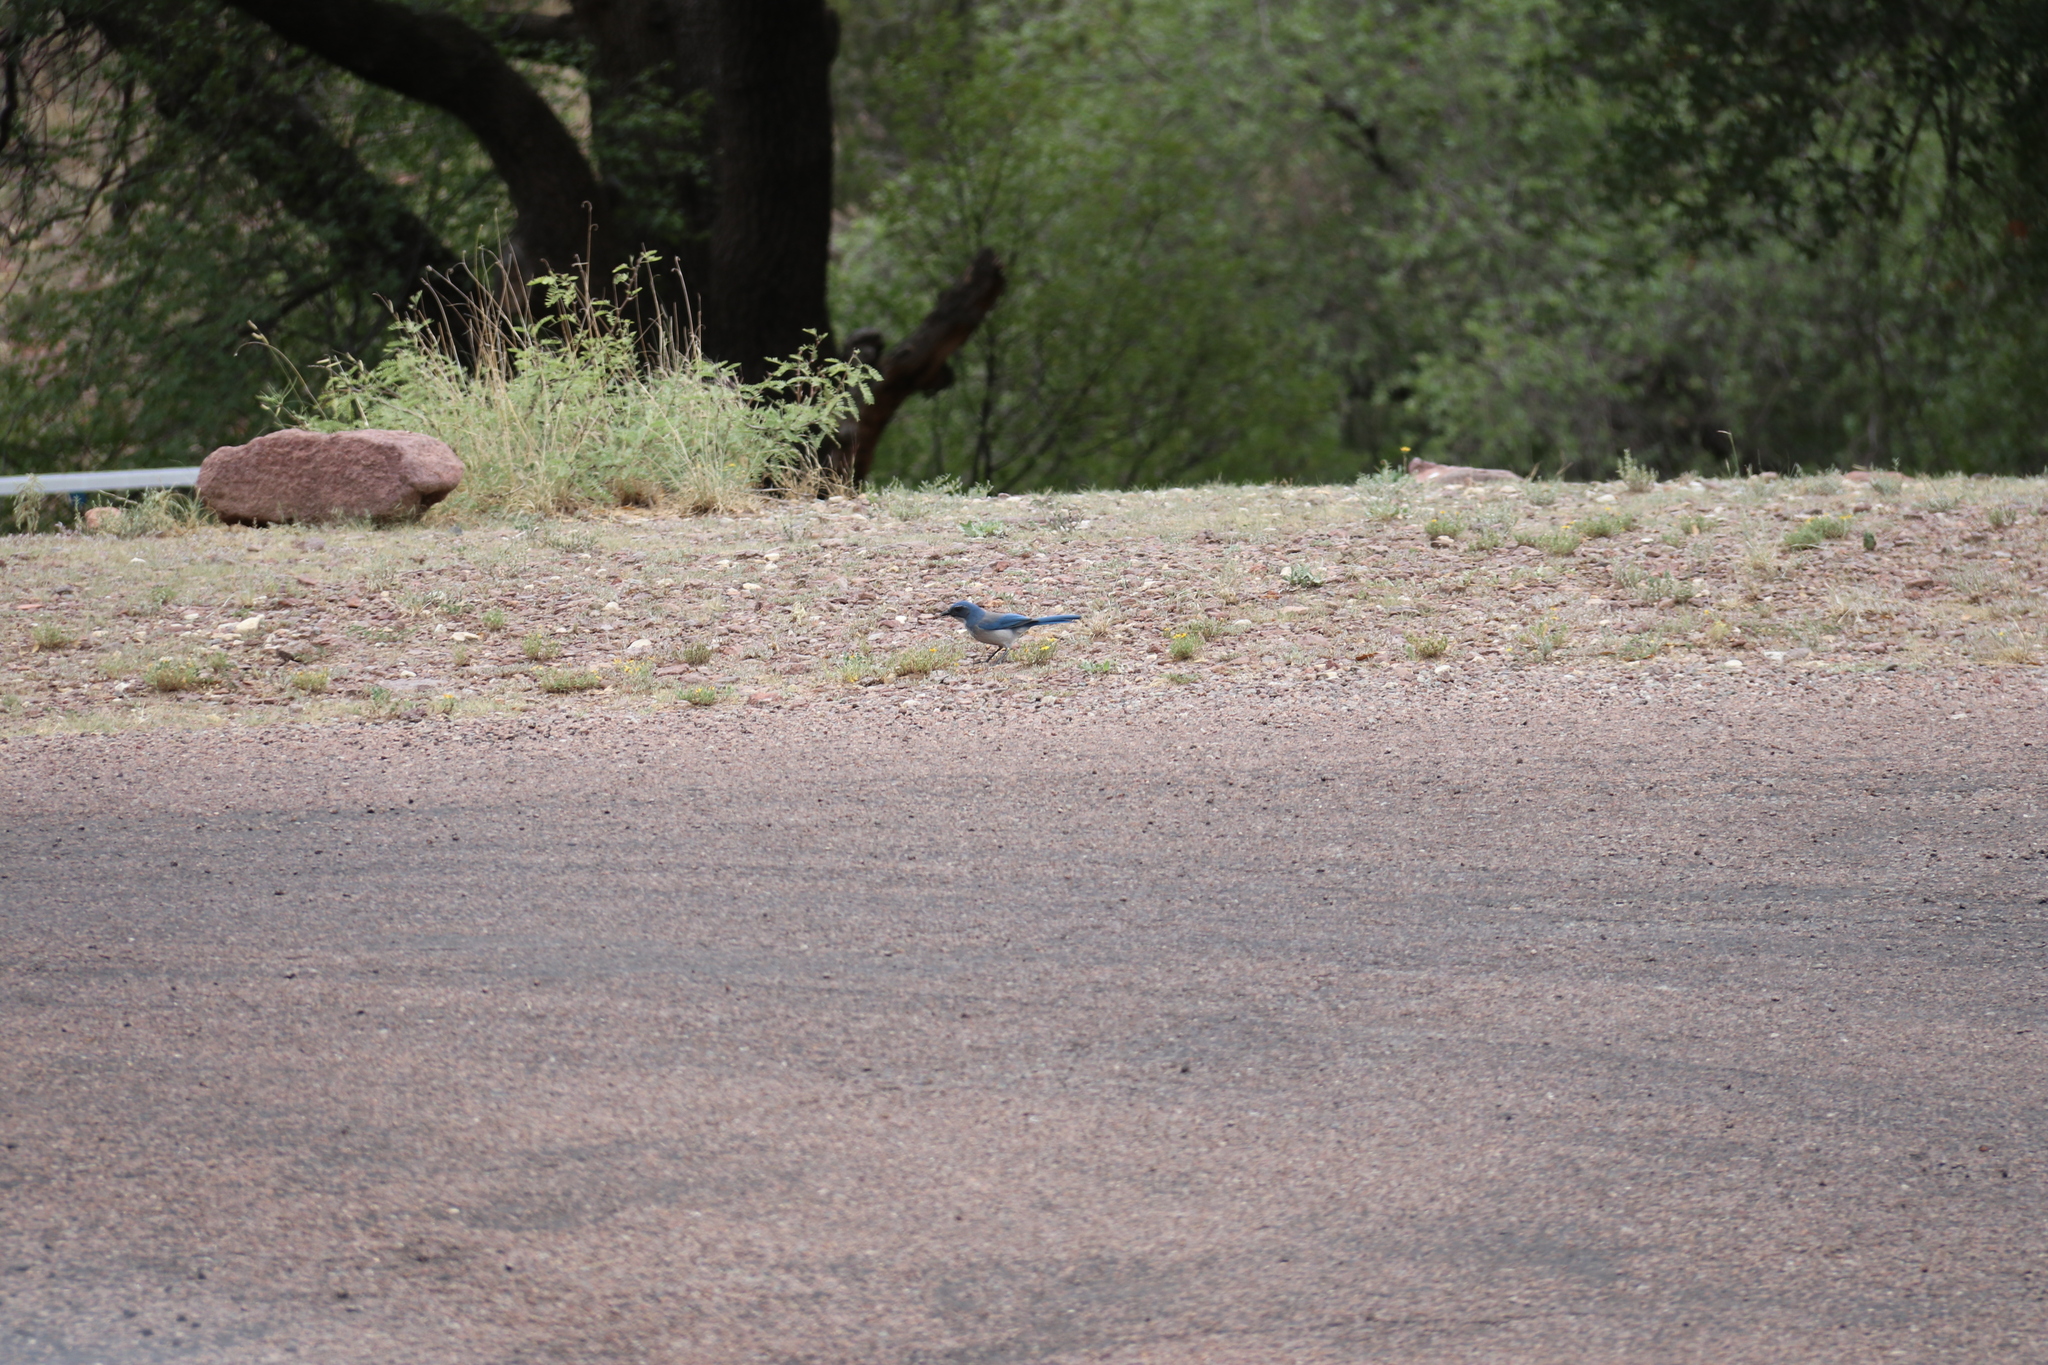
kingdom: Animalia
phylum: Chordata
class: Aves
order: Passeriformes
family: Corvidae
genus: Aphelocoma
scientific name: Aphelocoma woodhouseii
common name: Woodhouse's scrub-jay
